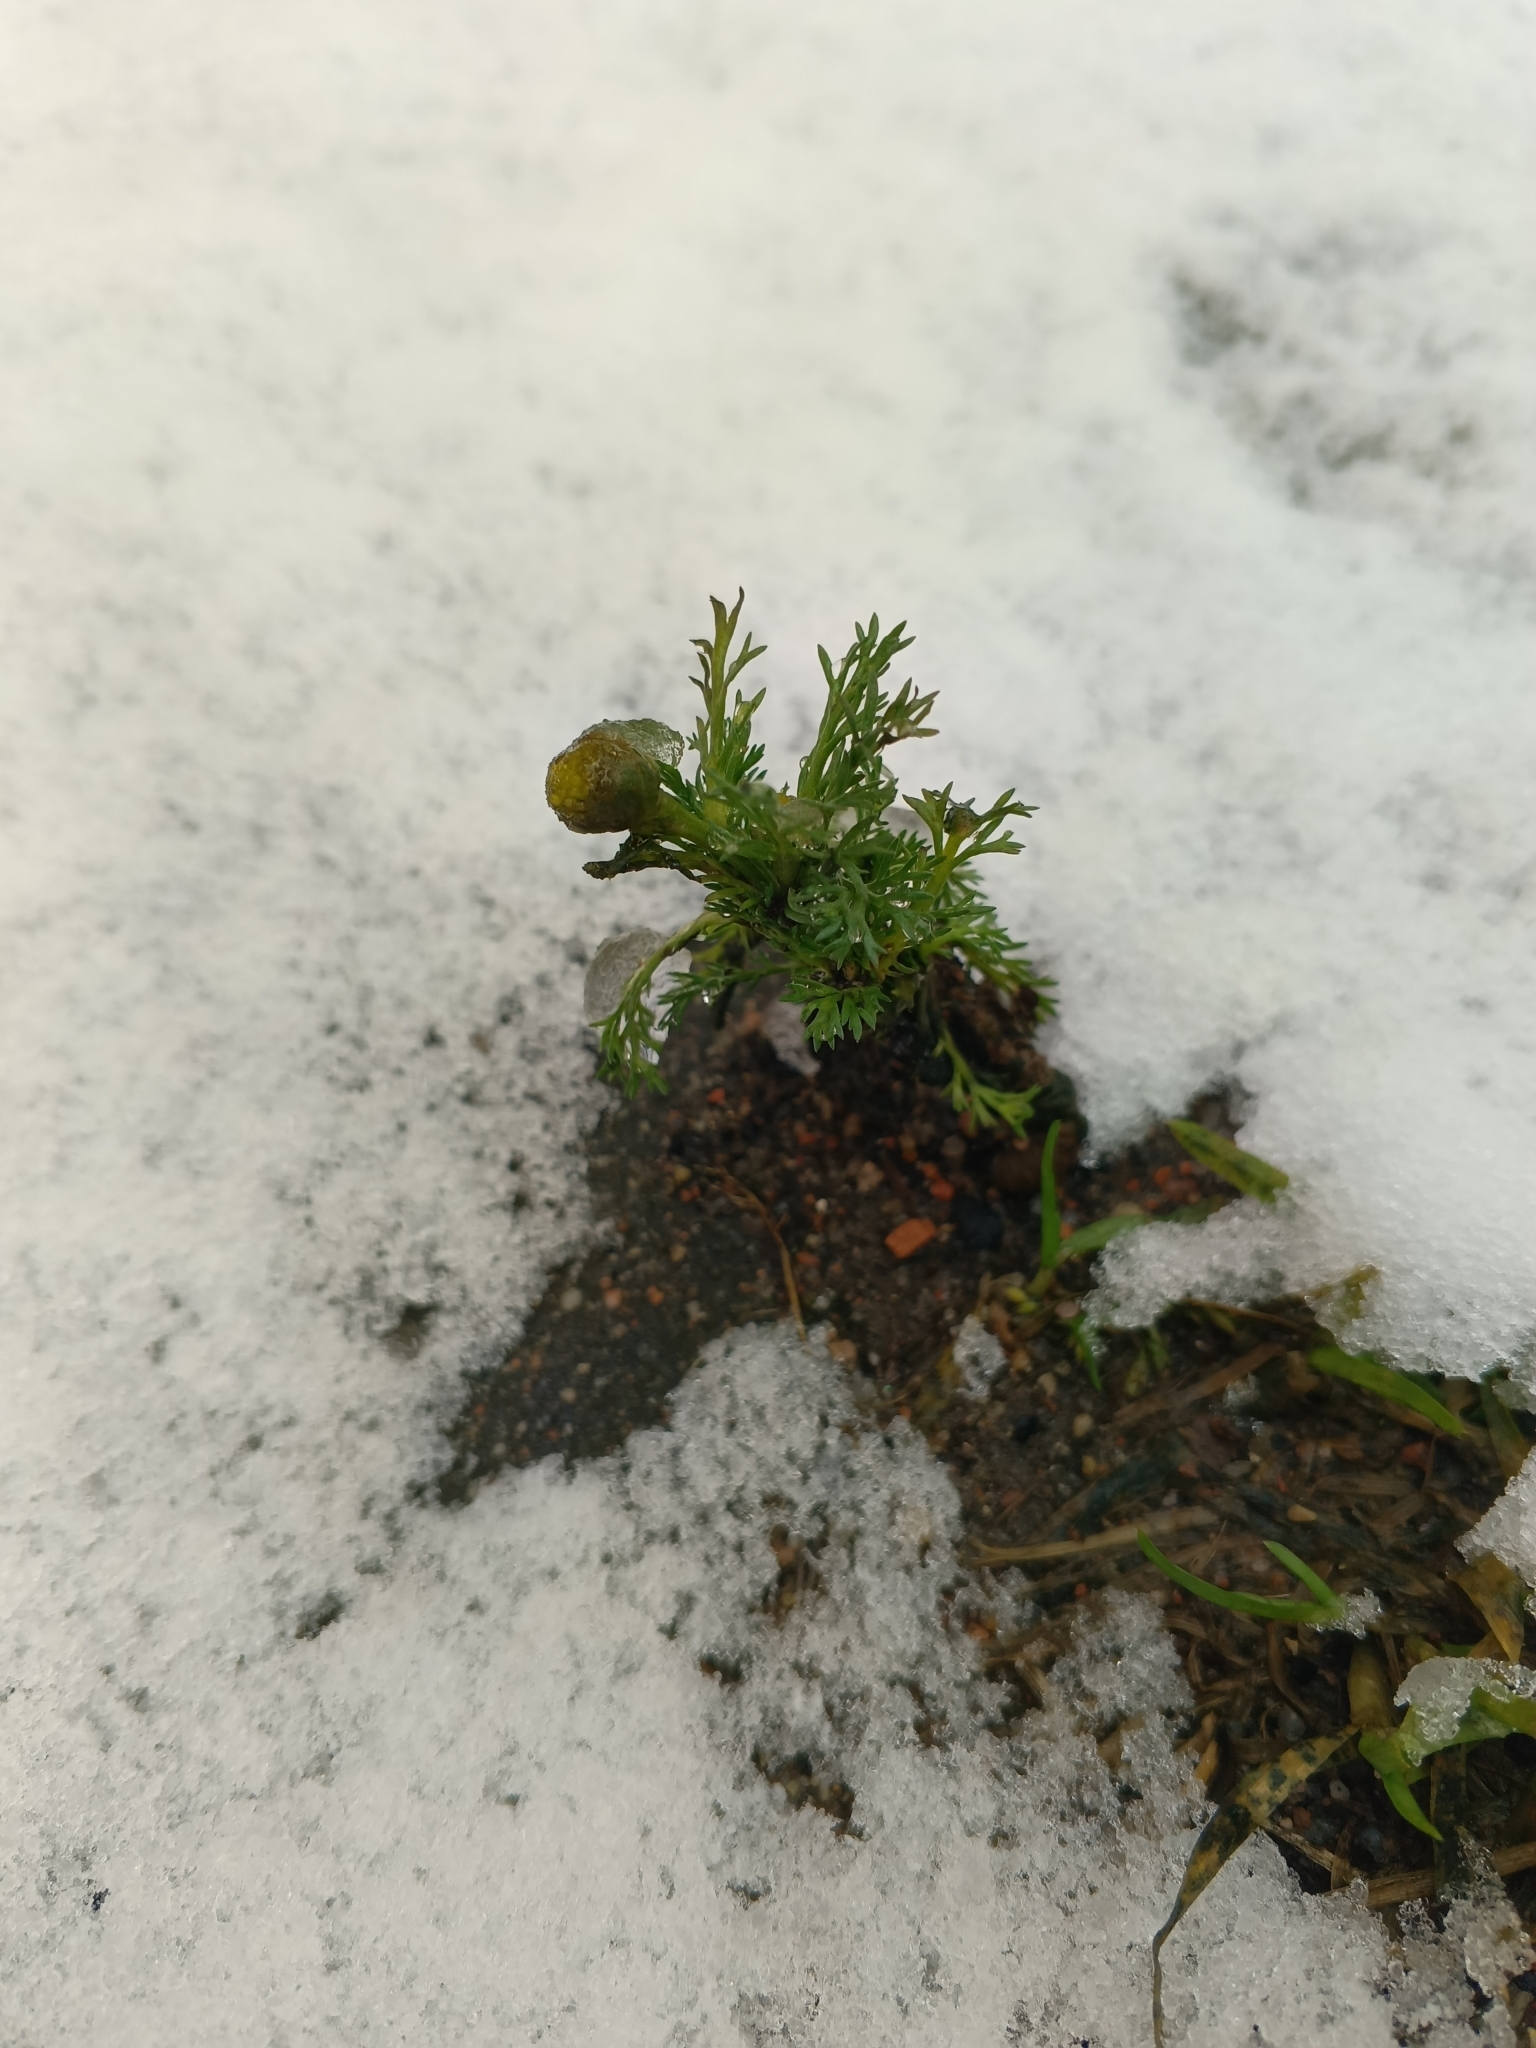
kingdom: Plantae
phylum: Tracheophyta
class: Magnoliopsida
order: Asterales
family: Asteraceae
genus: Matricaria
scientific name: Matricaria discoidea
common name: Disc mayweed
